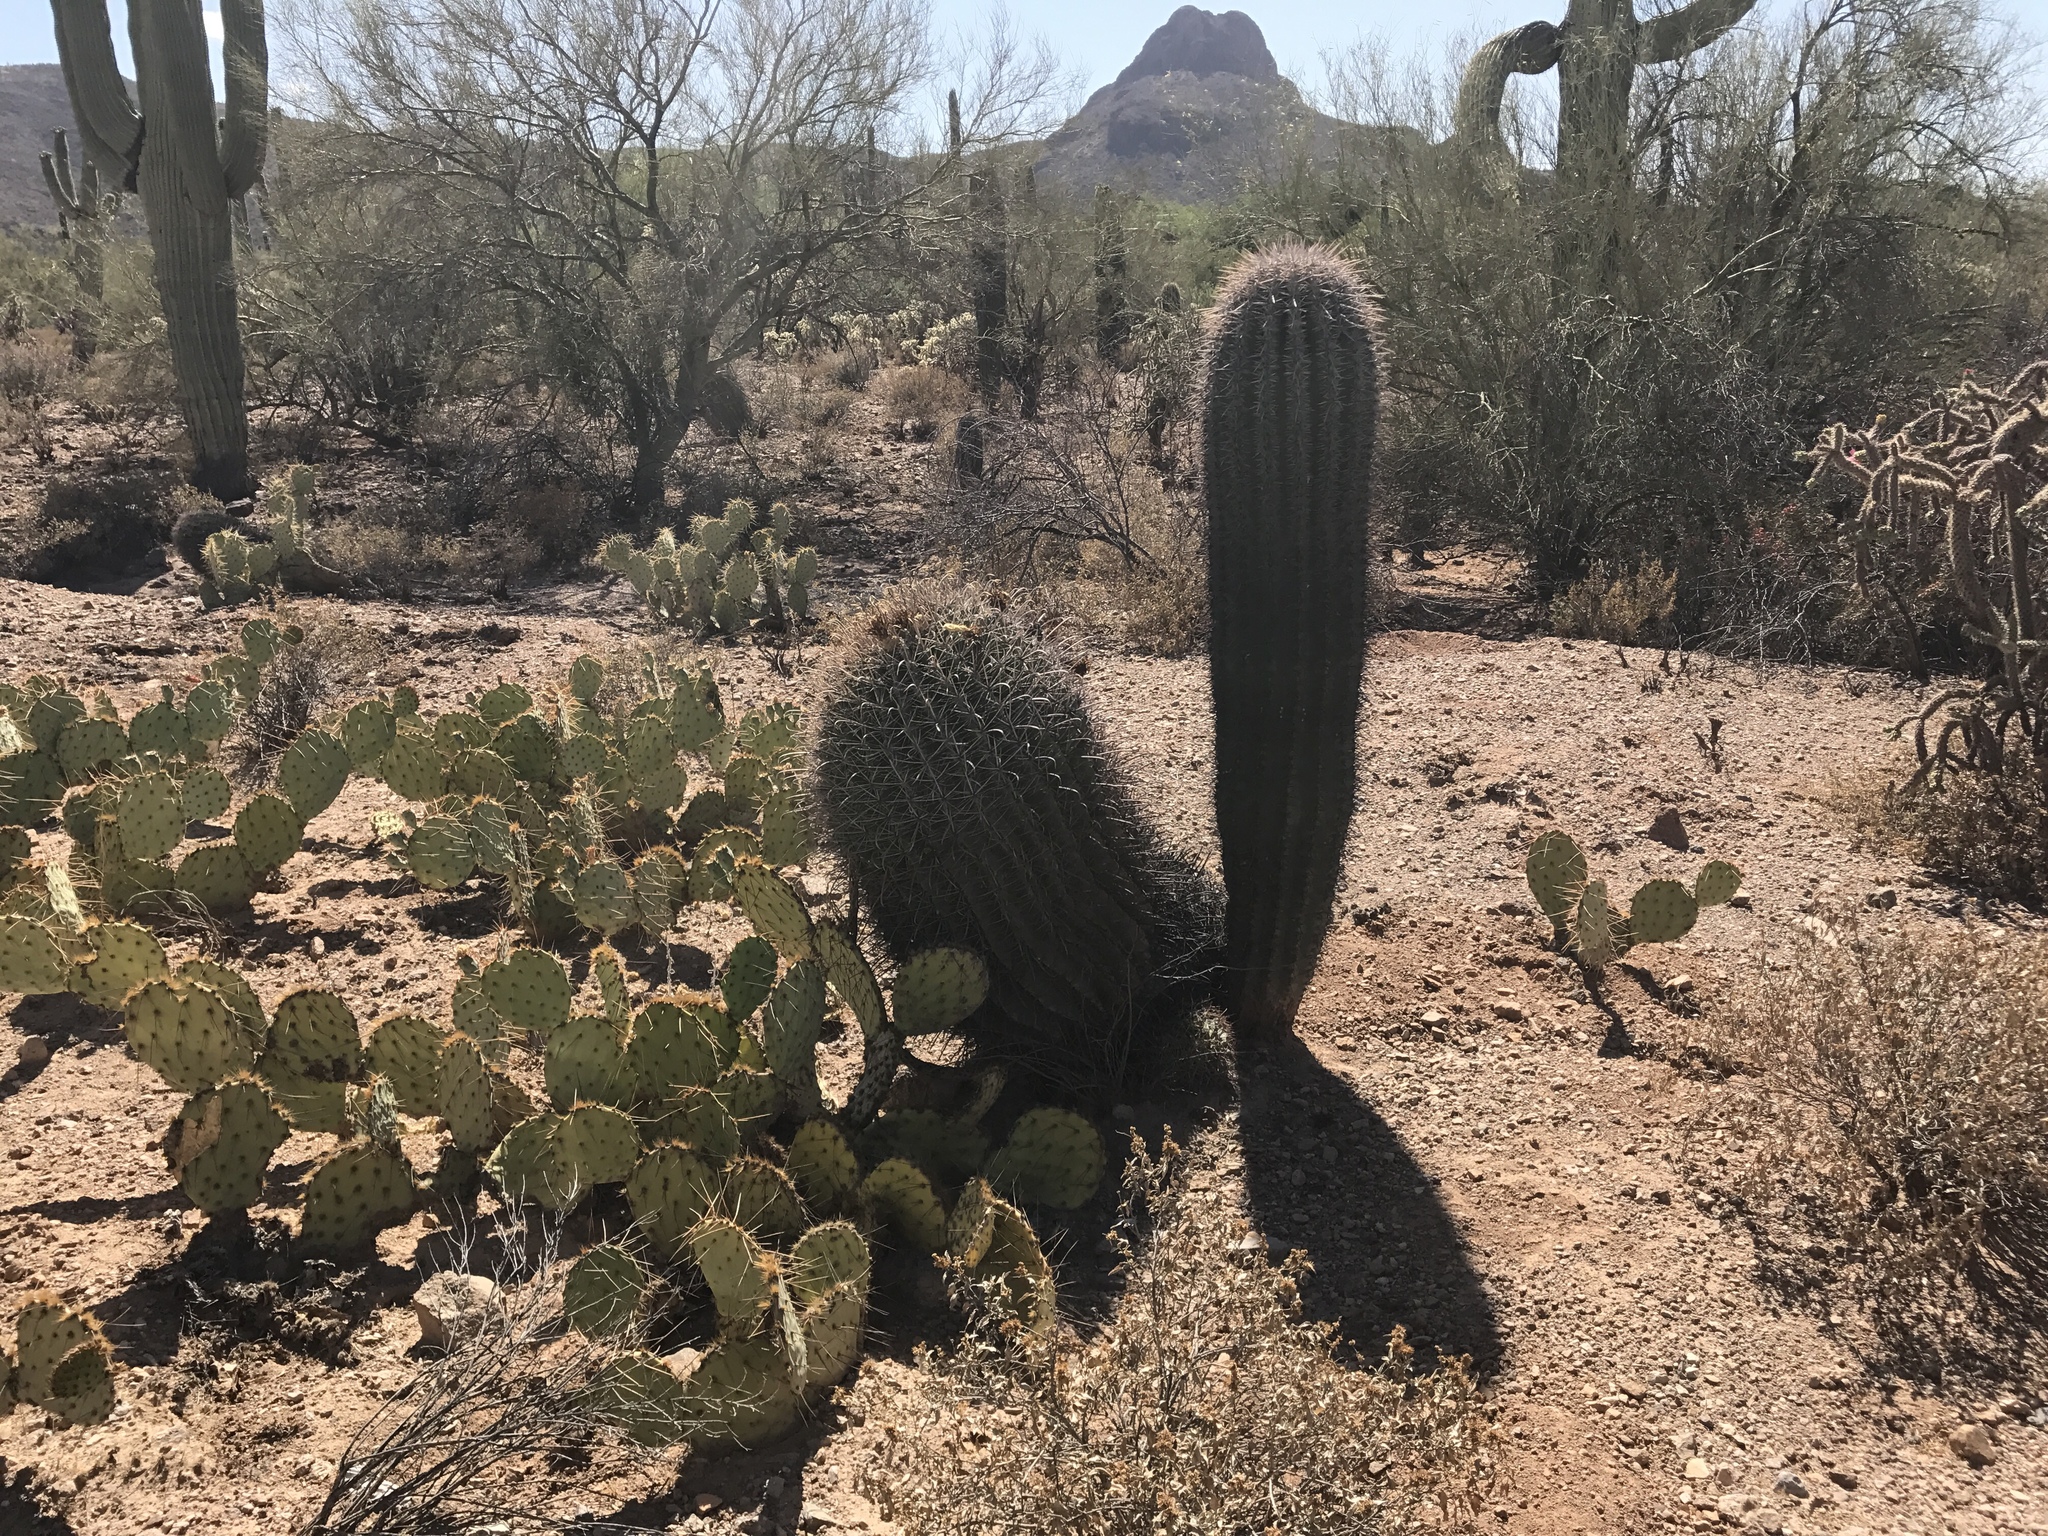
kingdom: Plantae
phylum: Tracheophyta
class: Magnoliopsida
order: Caryophyllales
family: Cactaceae
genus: Carnegiea
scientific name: Carnegiea gigantea
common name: Saguaro
